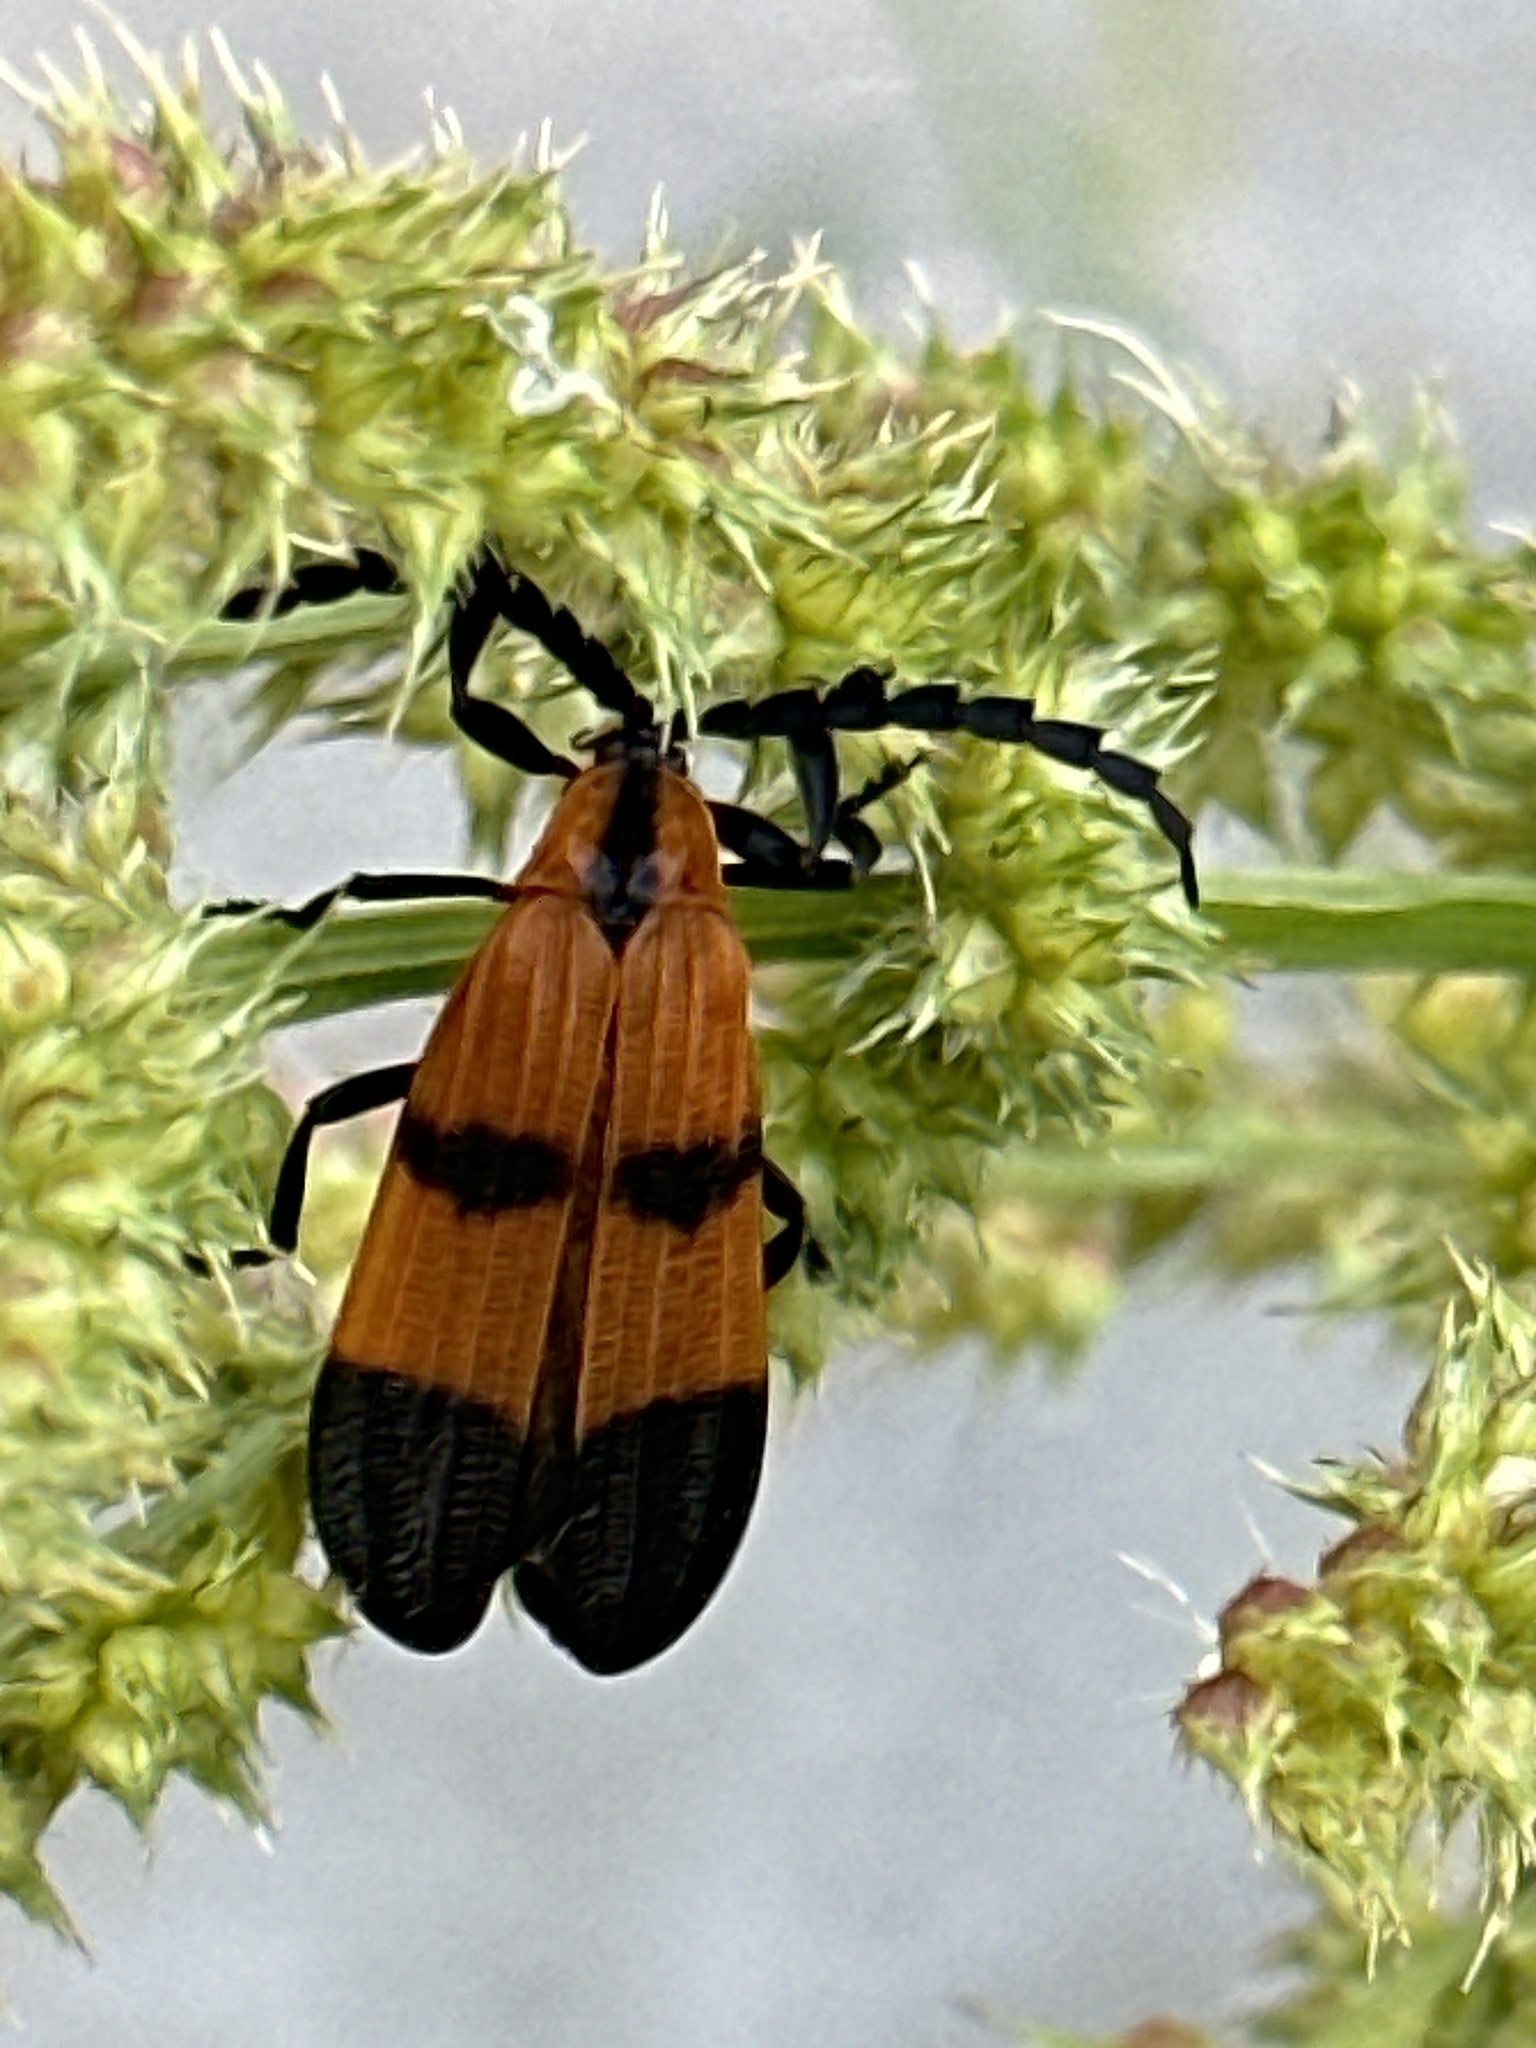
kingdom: Animalia
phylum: Arthropoda
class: Insecta
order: Coleoptera
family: Lycidae
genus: Calopteron
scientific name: Calopteron reticulatum
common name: Banded net-winged beetle
